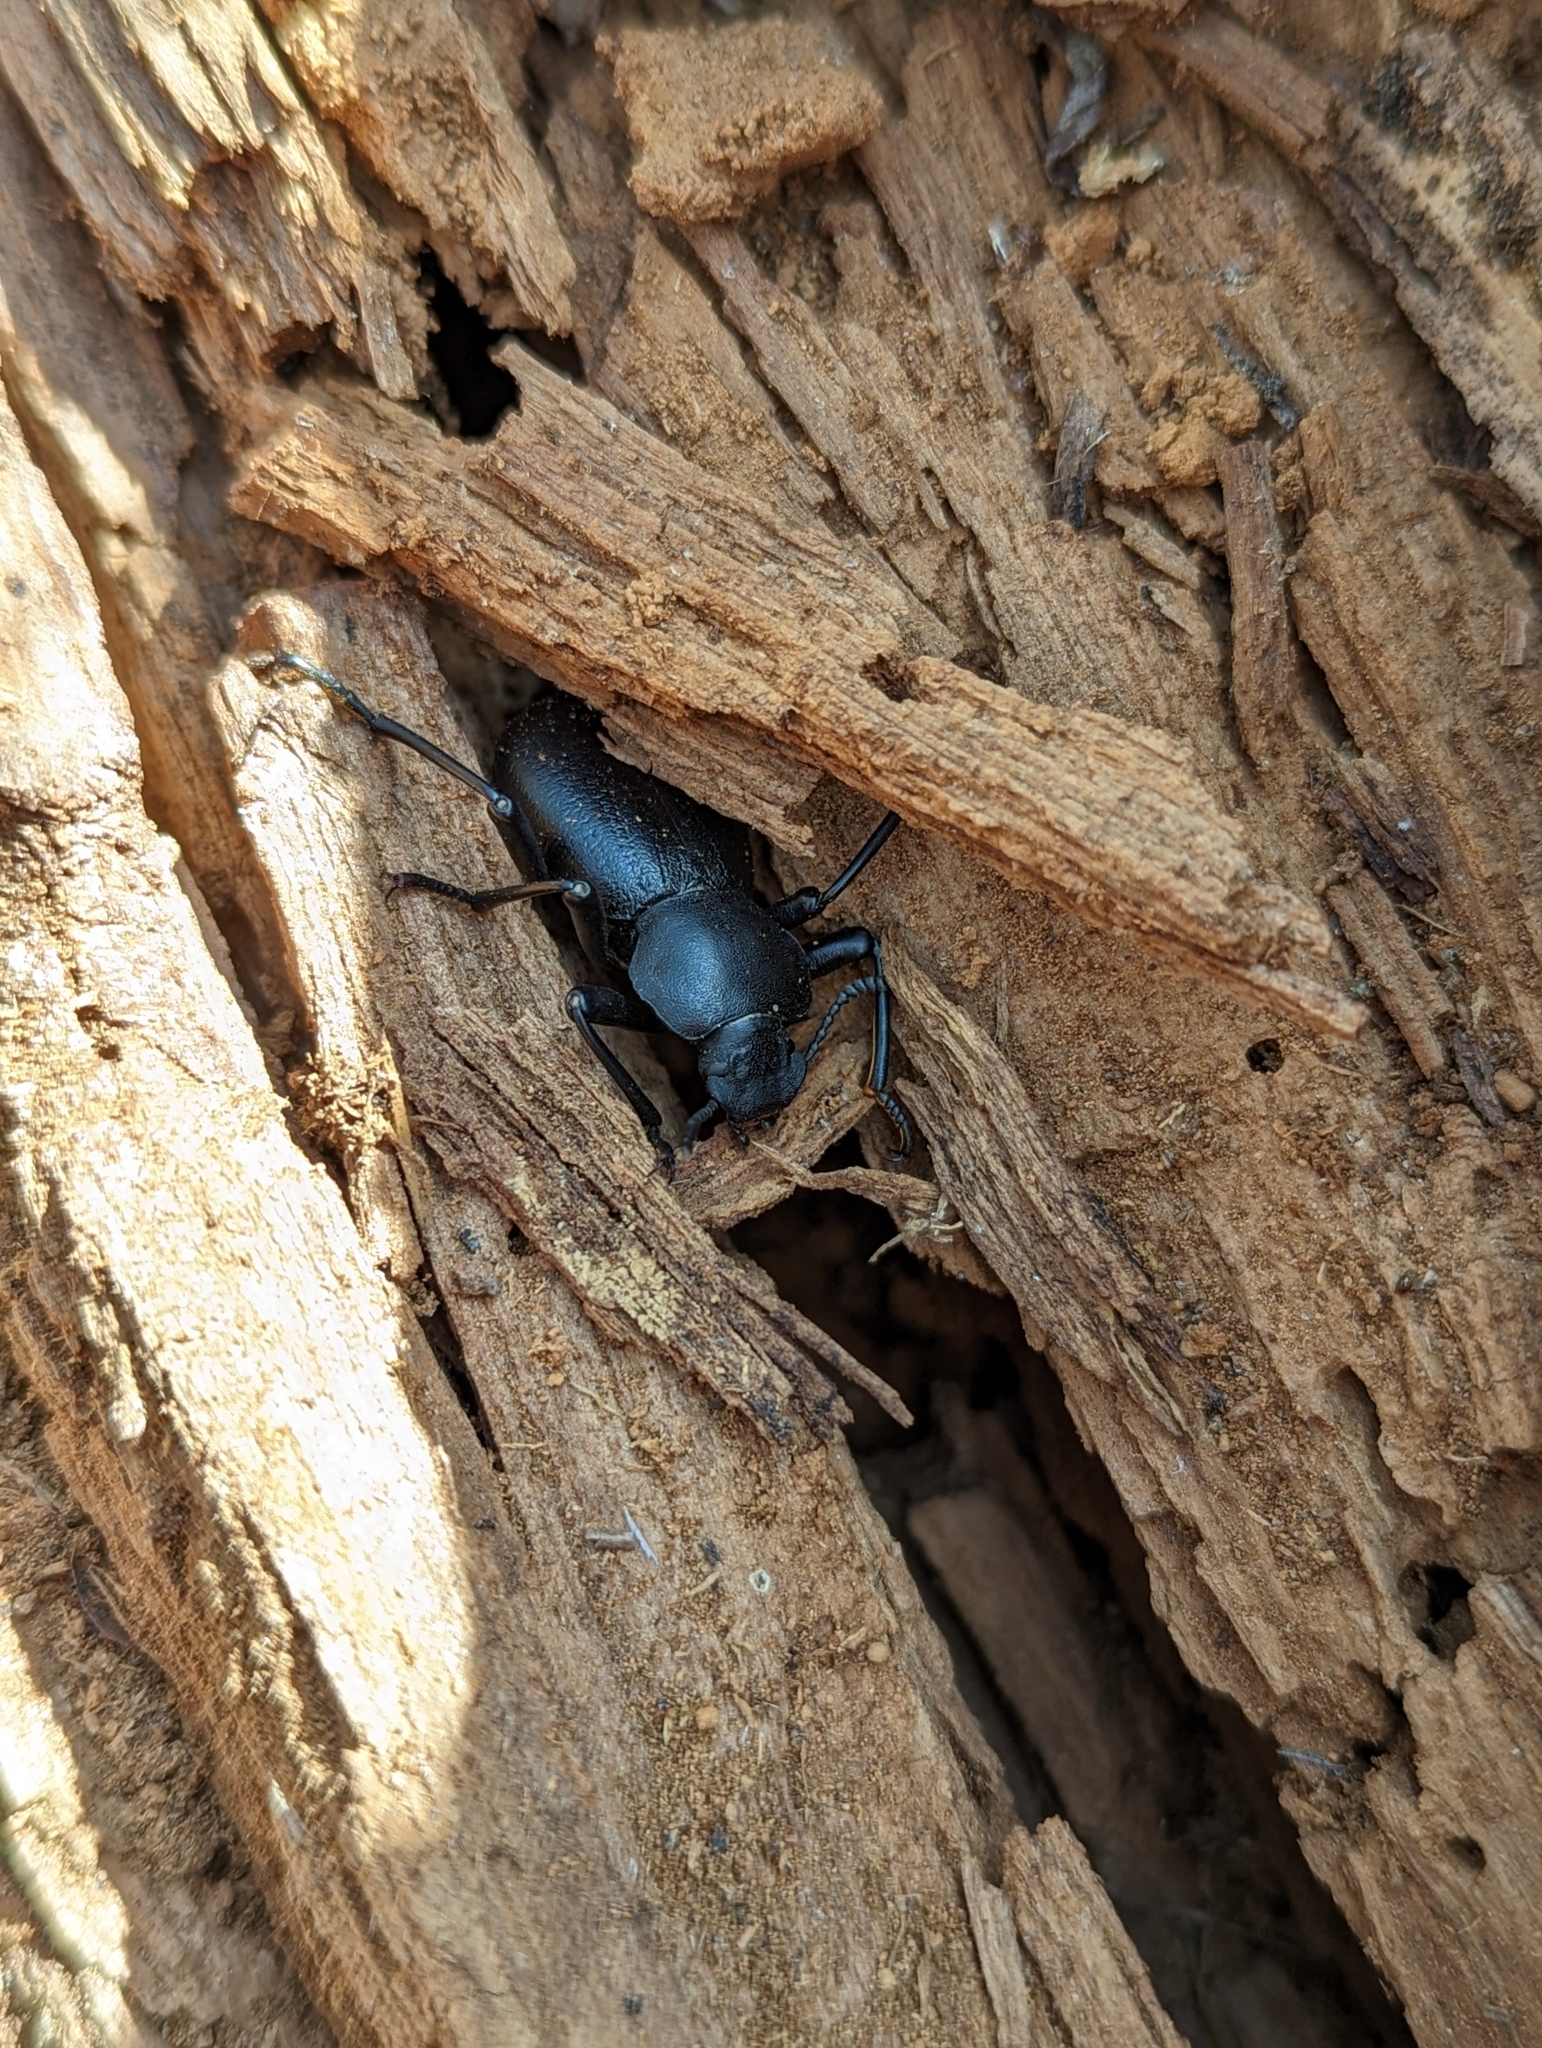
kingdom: Animalia
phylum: Arthropoda
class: Insecta
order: Coleoptera
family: Tenebrionidae
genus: Coelocnemis
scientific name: Coelocnemis dilaticollis
